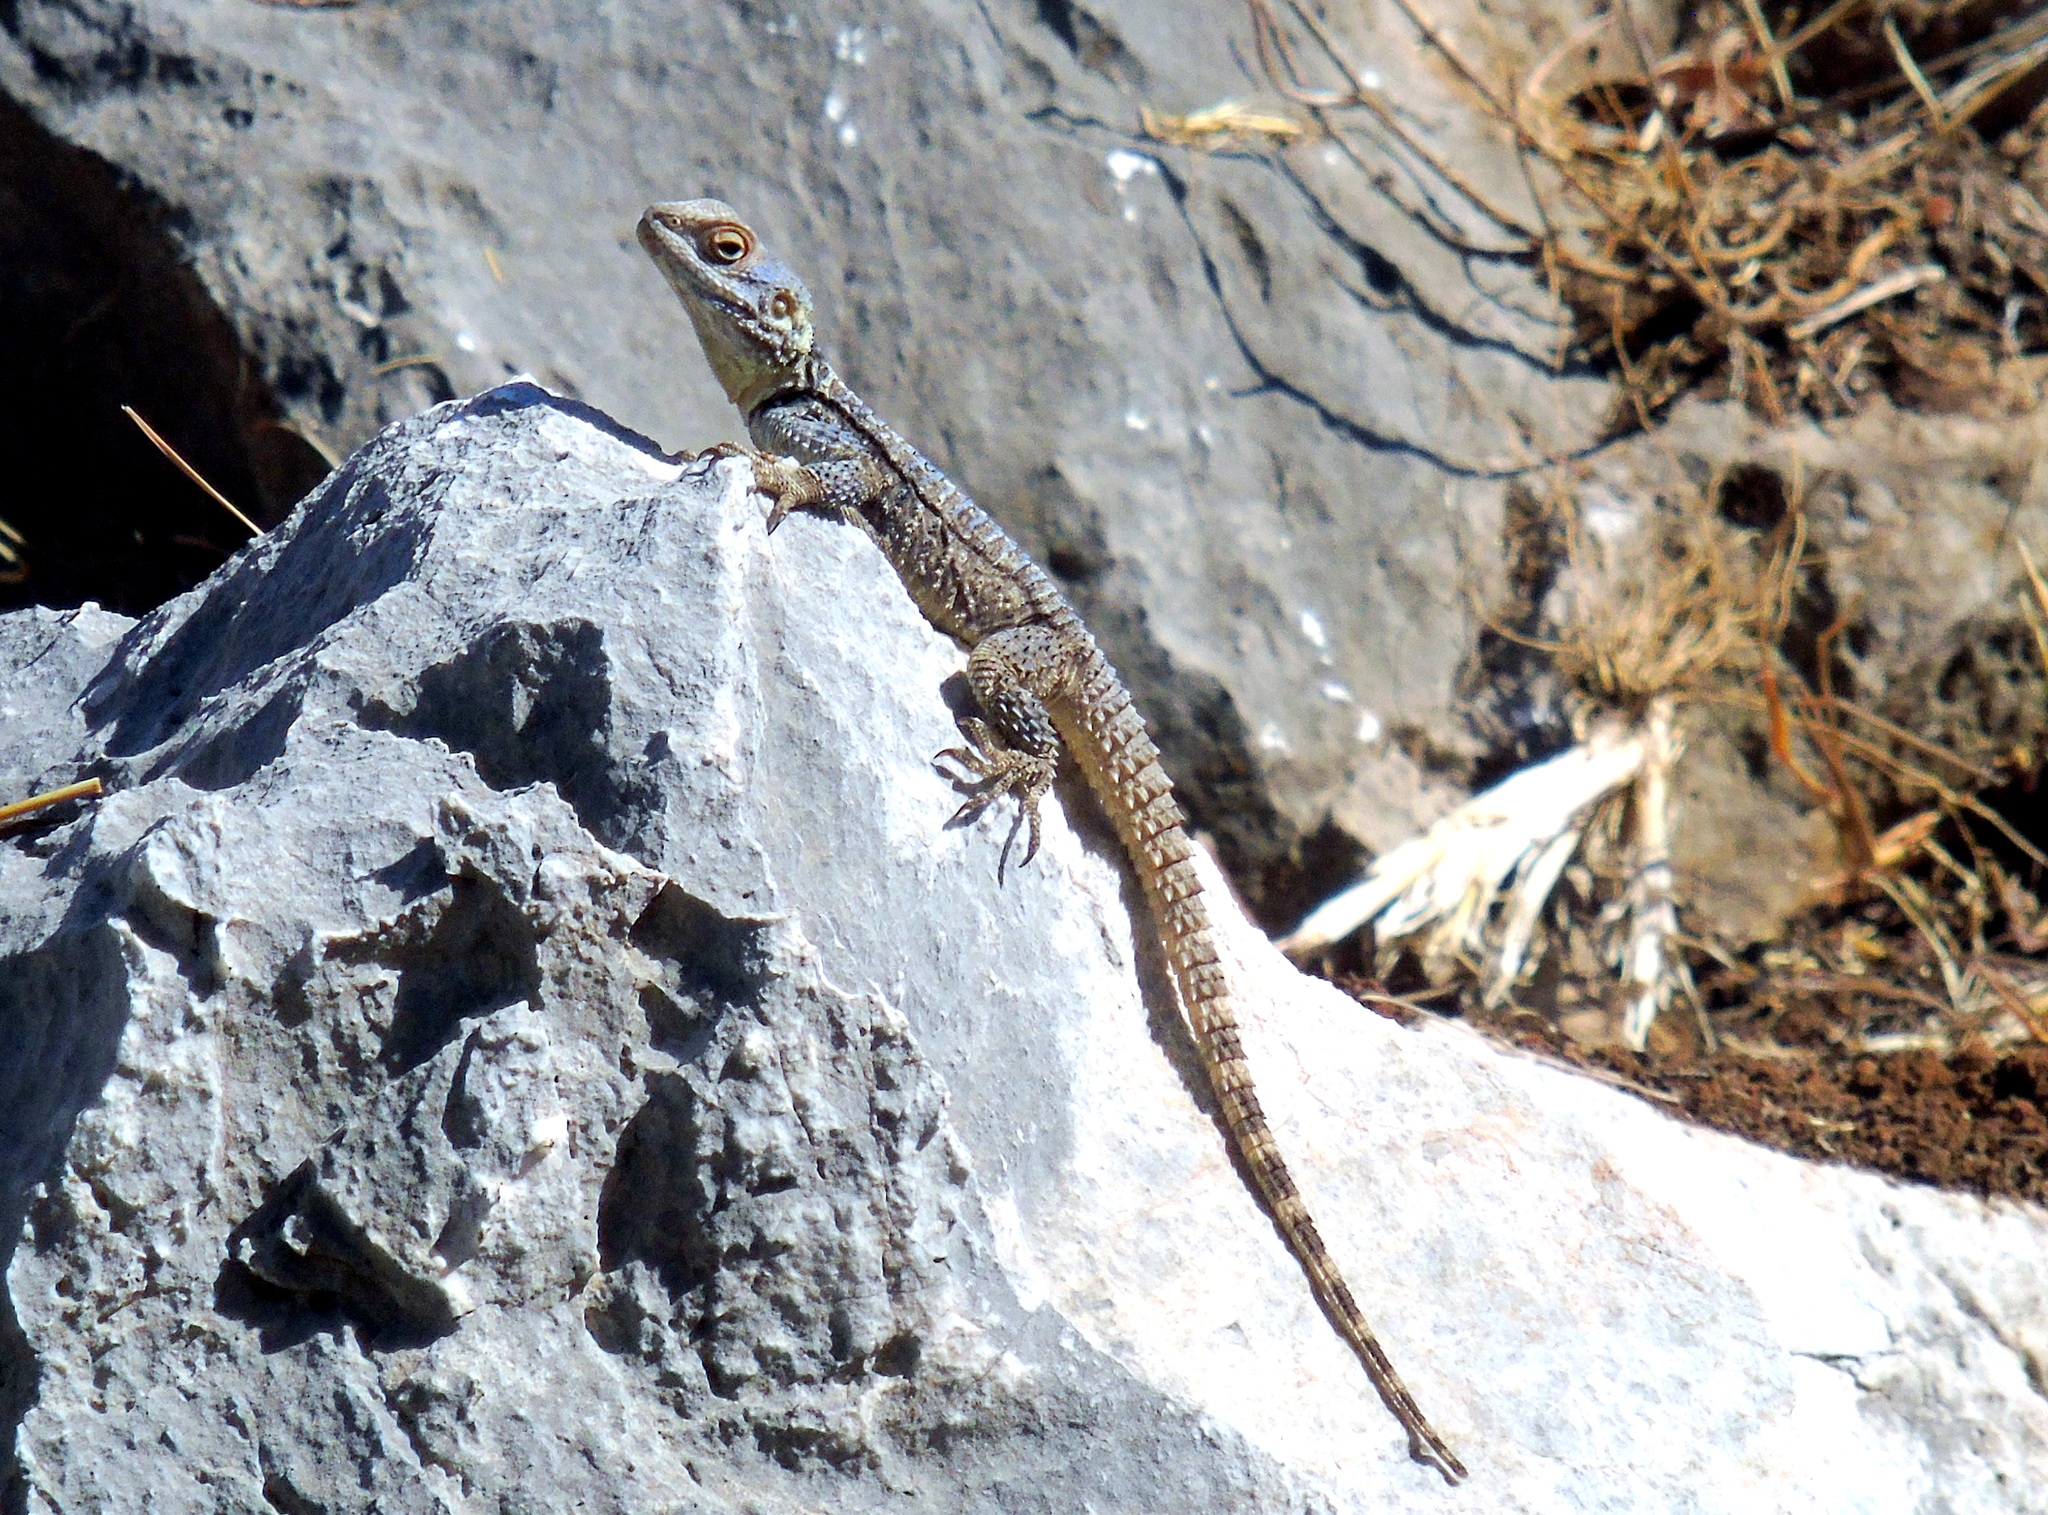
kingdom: Animalia
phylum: Chordata
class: Squamata
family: Agamidae
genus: Stellagama
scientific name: Stellagama stellio
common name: Starred agama
